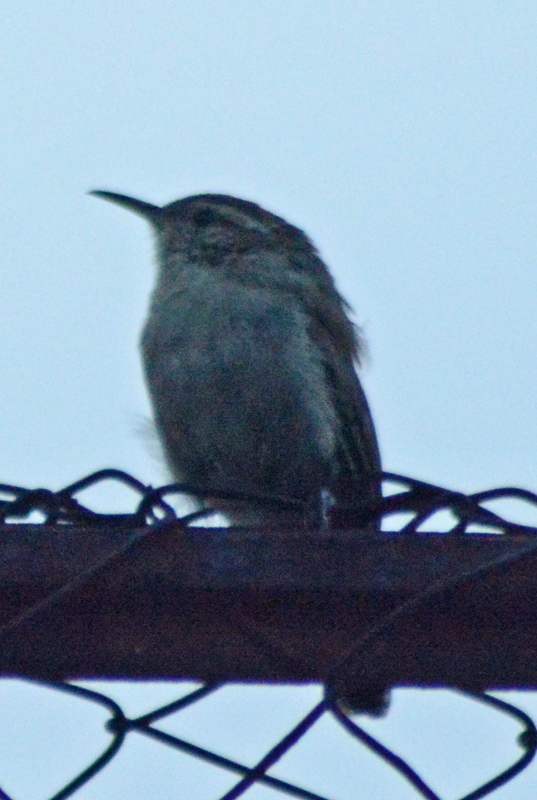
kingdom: Animalia
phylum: Chordata
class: Aves
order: Passeriformes
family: Troglodytidae
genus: Thryomanes
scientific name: Thryomanes bewickii
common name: Bewick's wren
